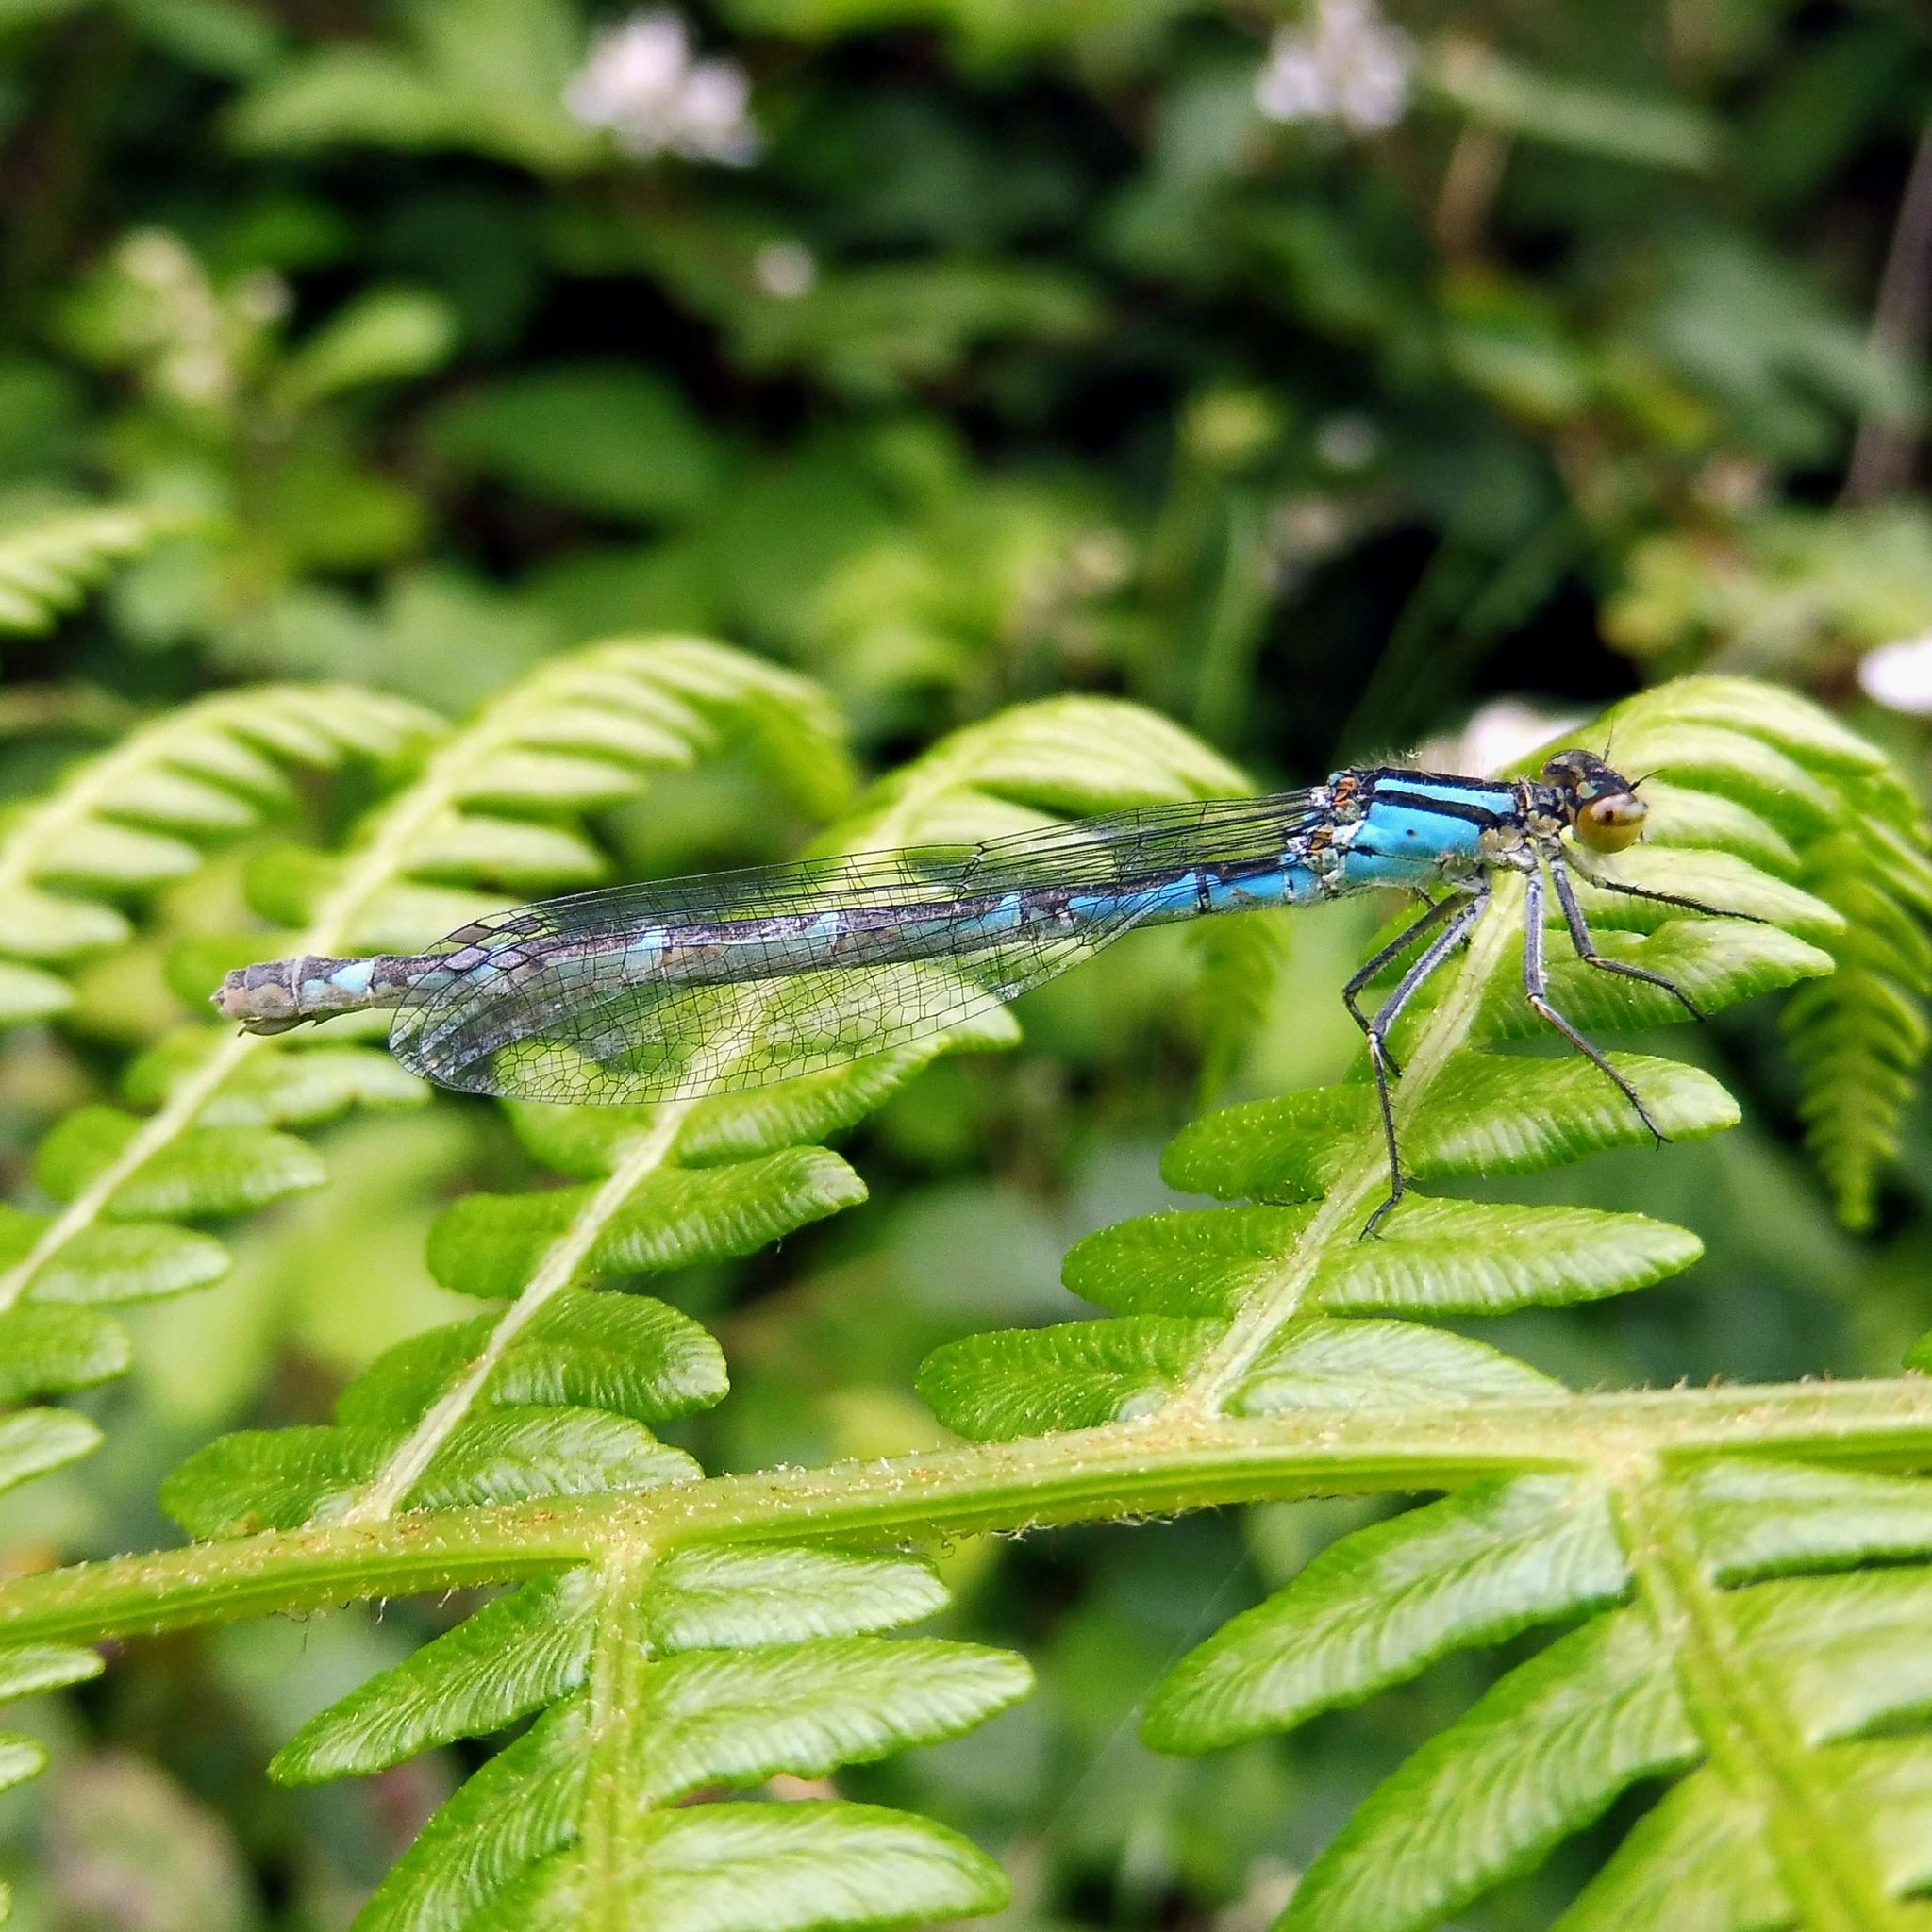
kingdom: Animalia
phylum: Arthropoda
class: Insecta
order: Odonata
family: Coenagrionidae
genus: Enallagma
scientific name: Enallagma cyathigerum
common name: Common blue damselfly
